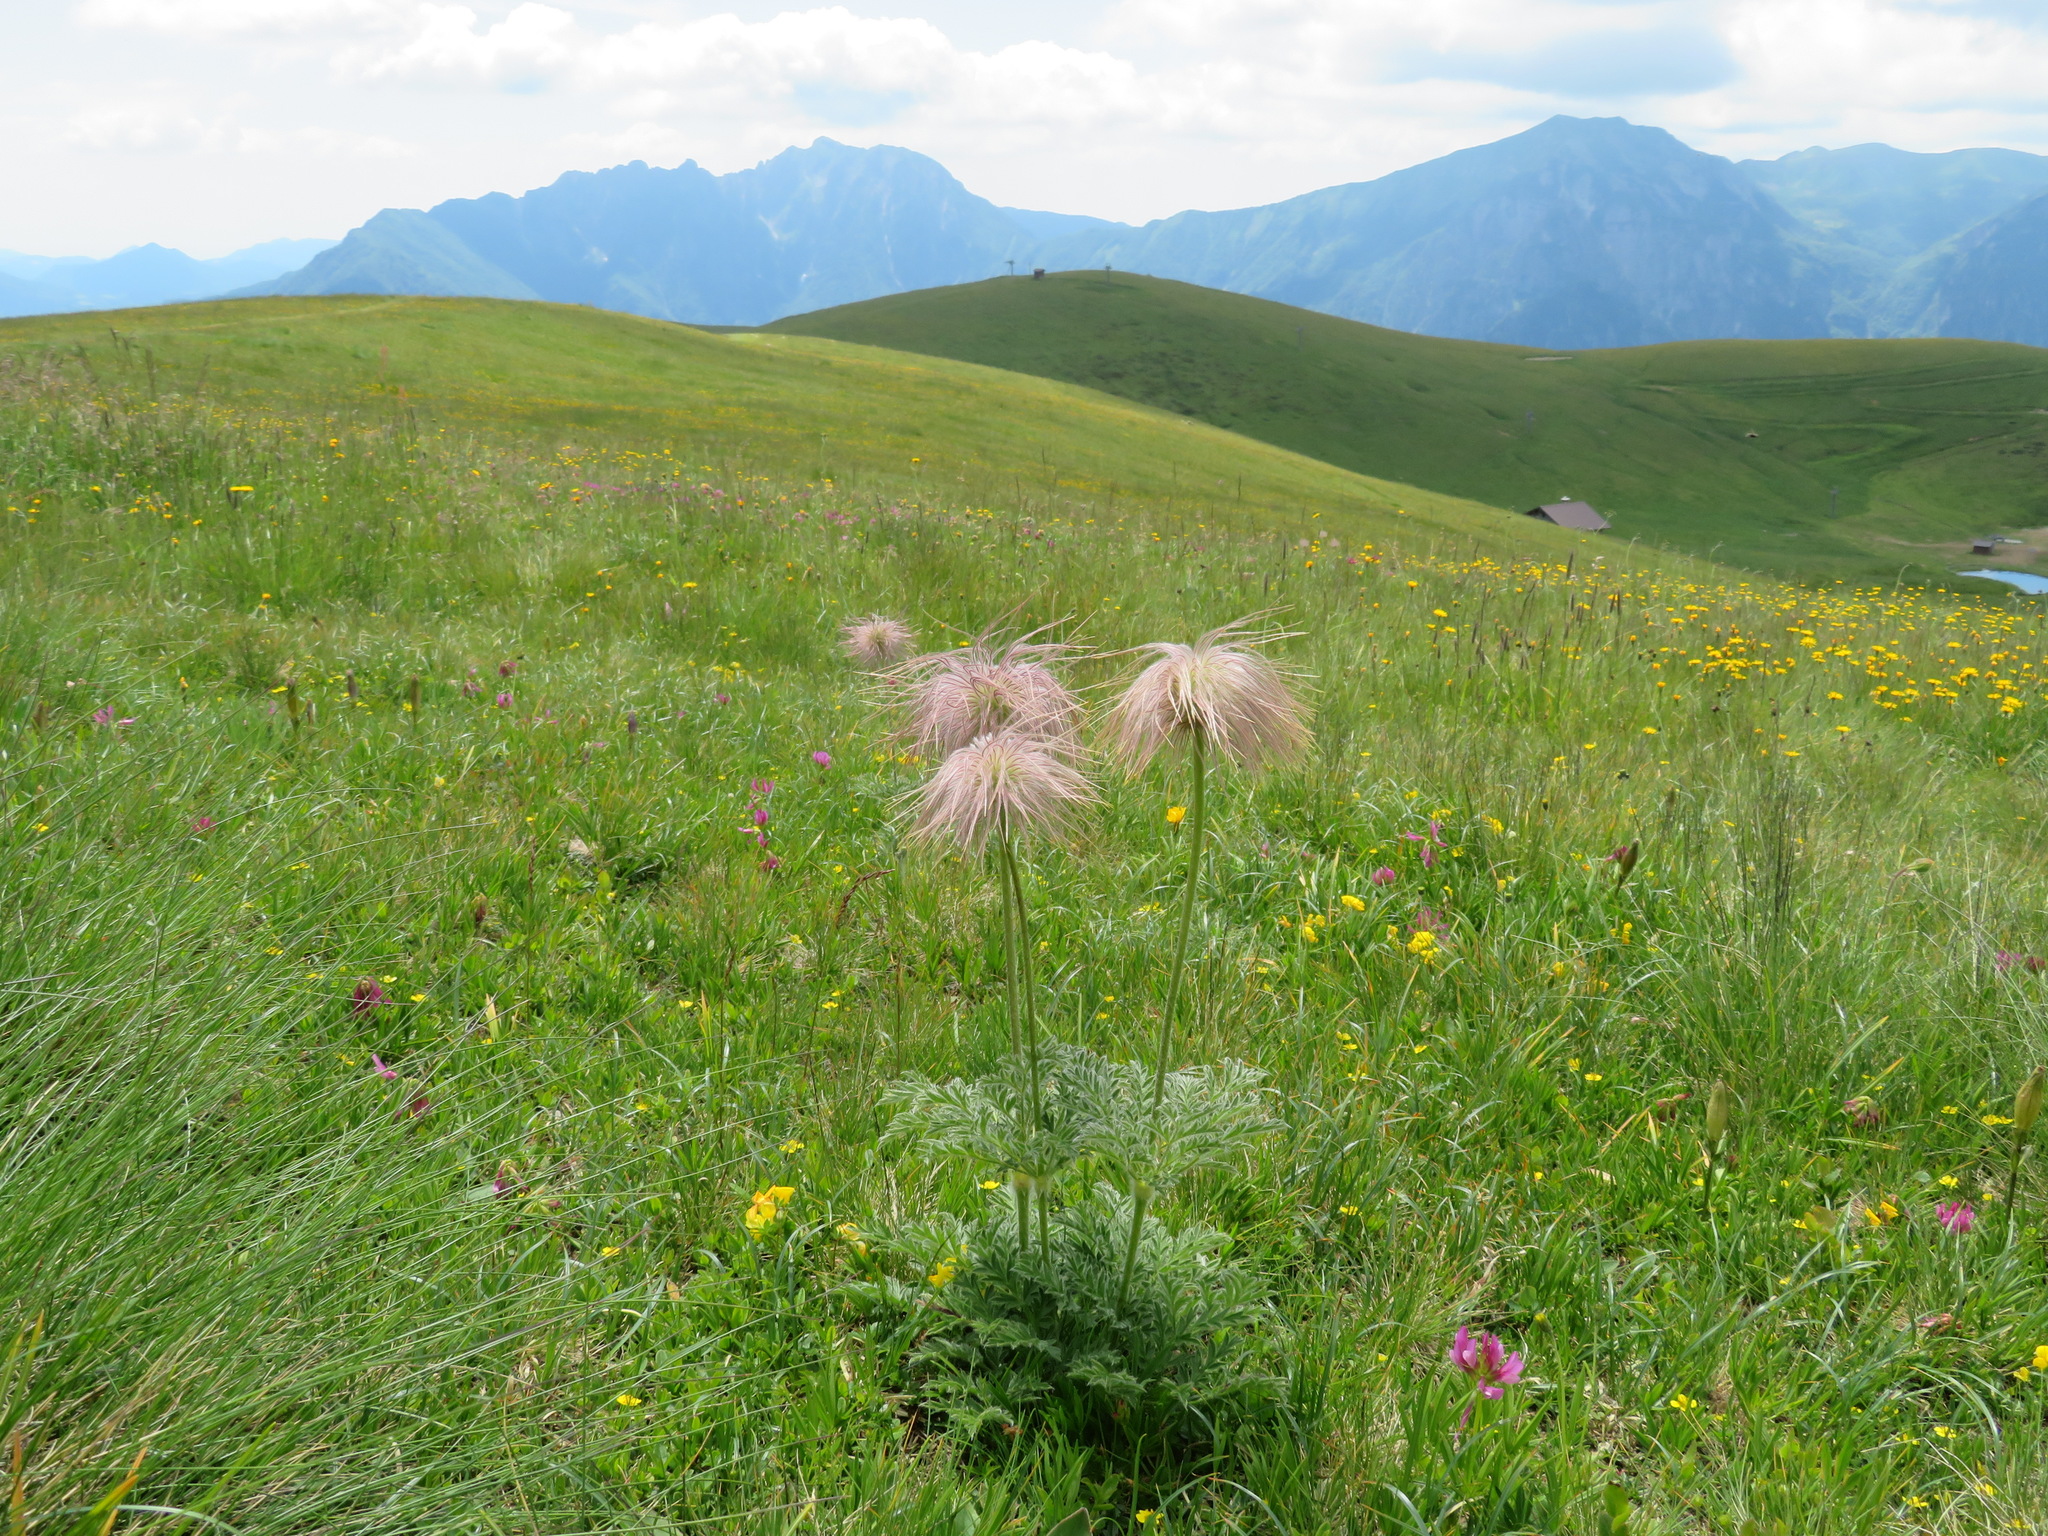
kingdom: Plantae
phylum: Tracheophyta
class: Magnoliopsida
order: Ranunculales
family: Ranunculaceae
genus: Pulsatilla
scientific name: Pulsatilla alpina
